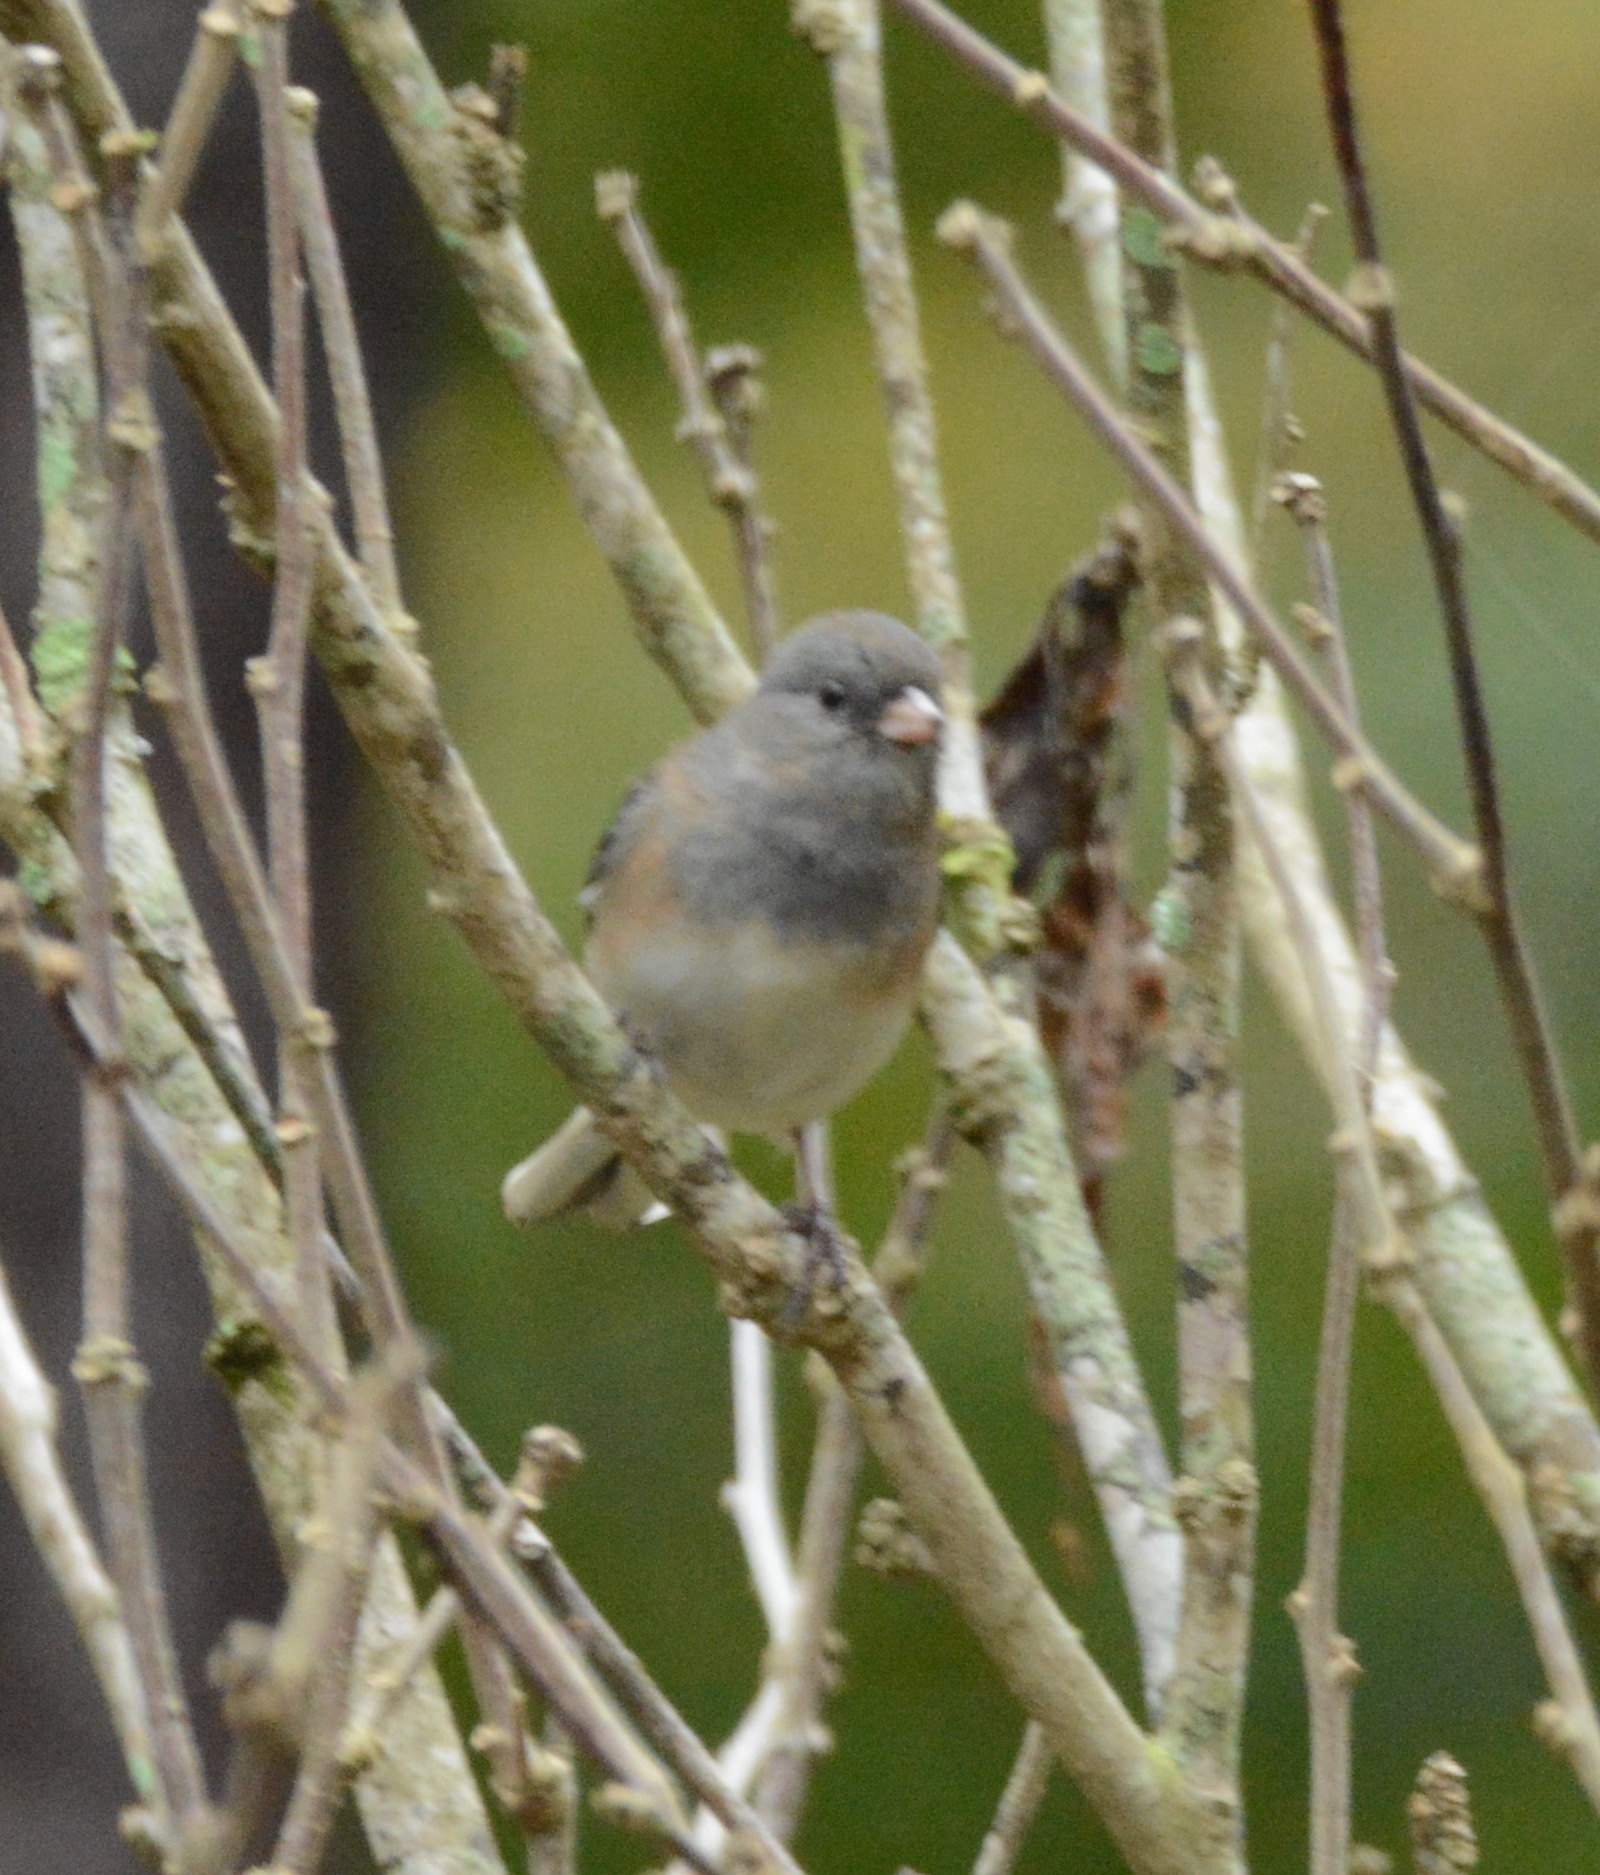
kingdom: Animalia
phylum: Chordata
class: Aves
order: Passeriformes
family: Passerellidae
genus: Junco
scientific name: Junco hyemalis
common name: Dark-eyed junco
